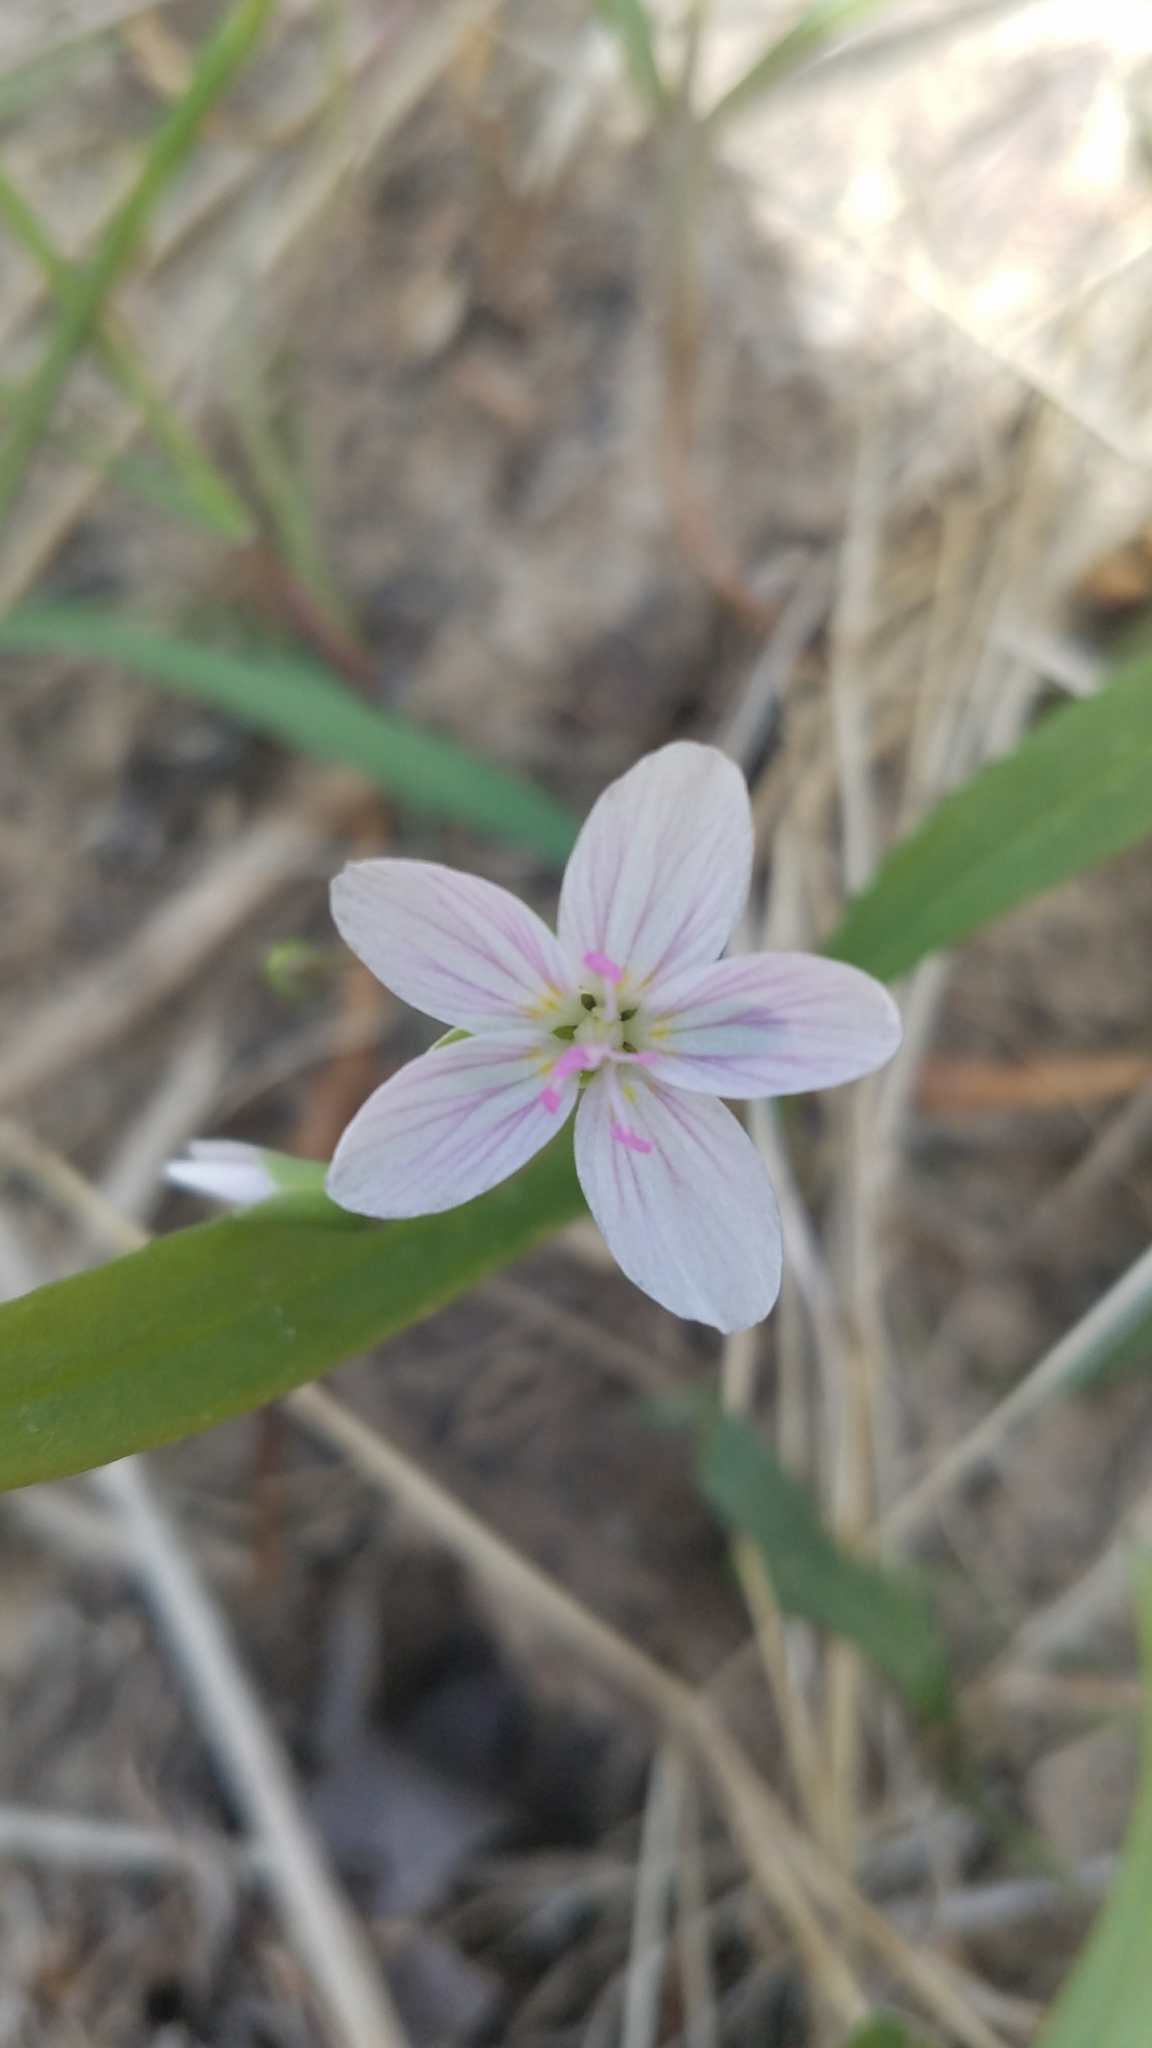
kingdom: Plantae
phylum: Tracheophyta
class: Magnoliopsida
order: Caryophyllales
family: Montiaceae
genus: Claytonia
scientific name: Claytonia virginica
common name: Virginia springbeauty
